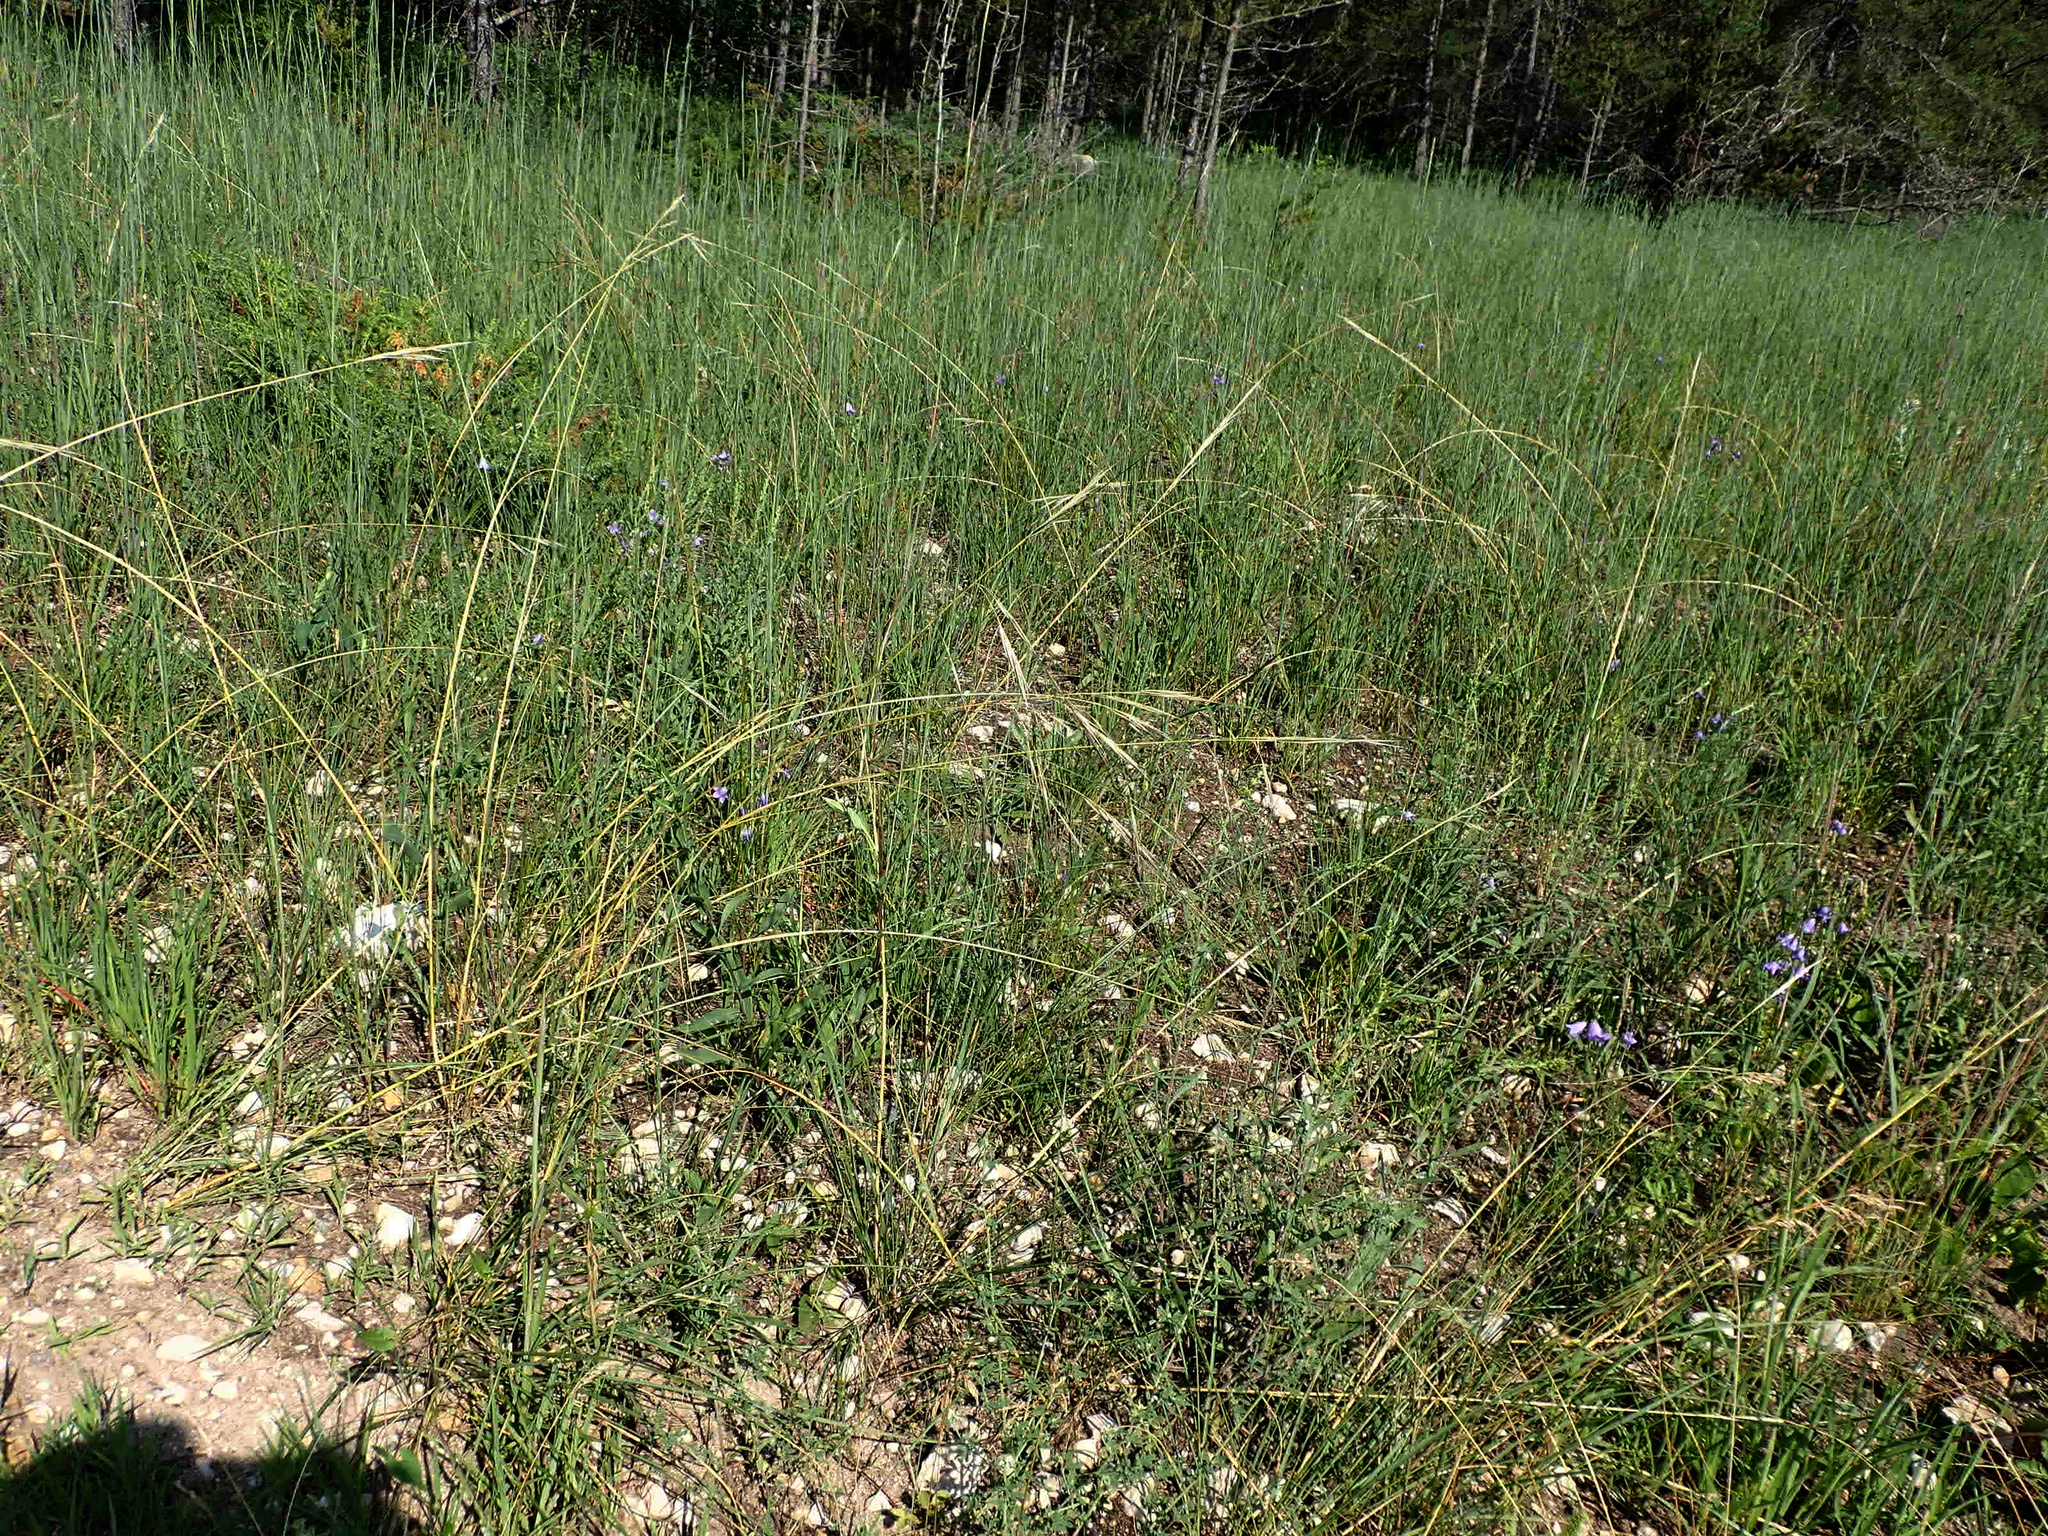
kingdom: Plantae
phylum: Tracheophyta
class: Liliopsida
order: Poales
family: Poaceae
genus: Hesperostipa
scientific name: Hesperostipa spartea
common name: Porcupine grass
